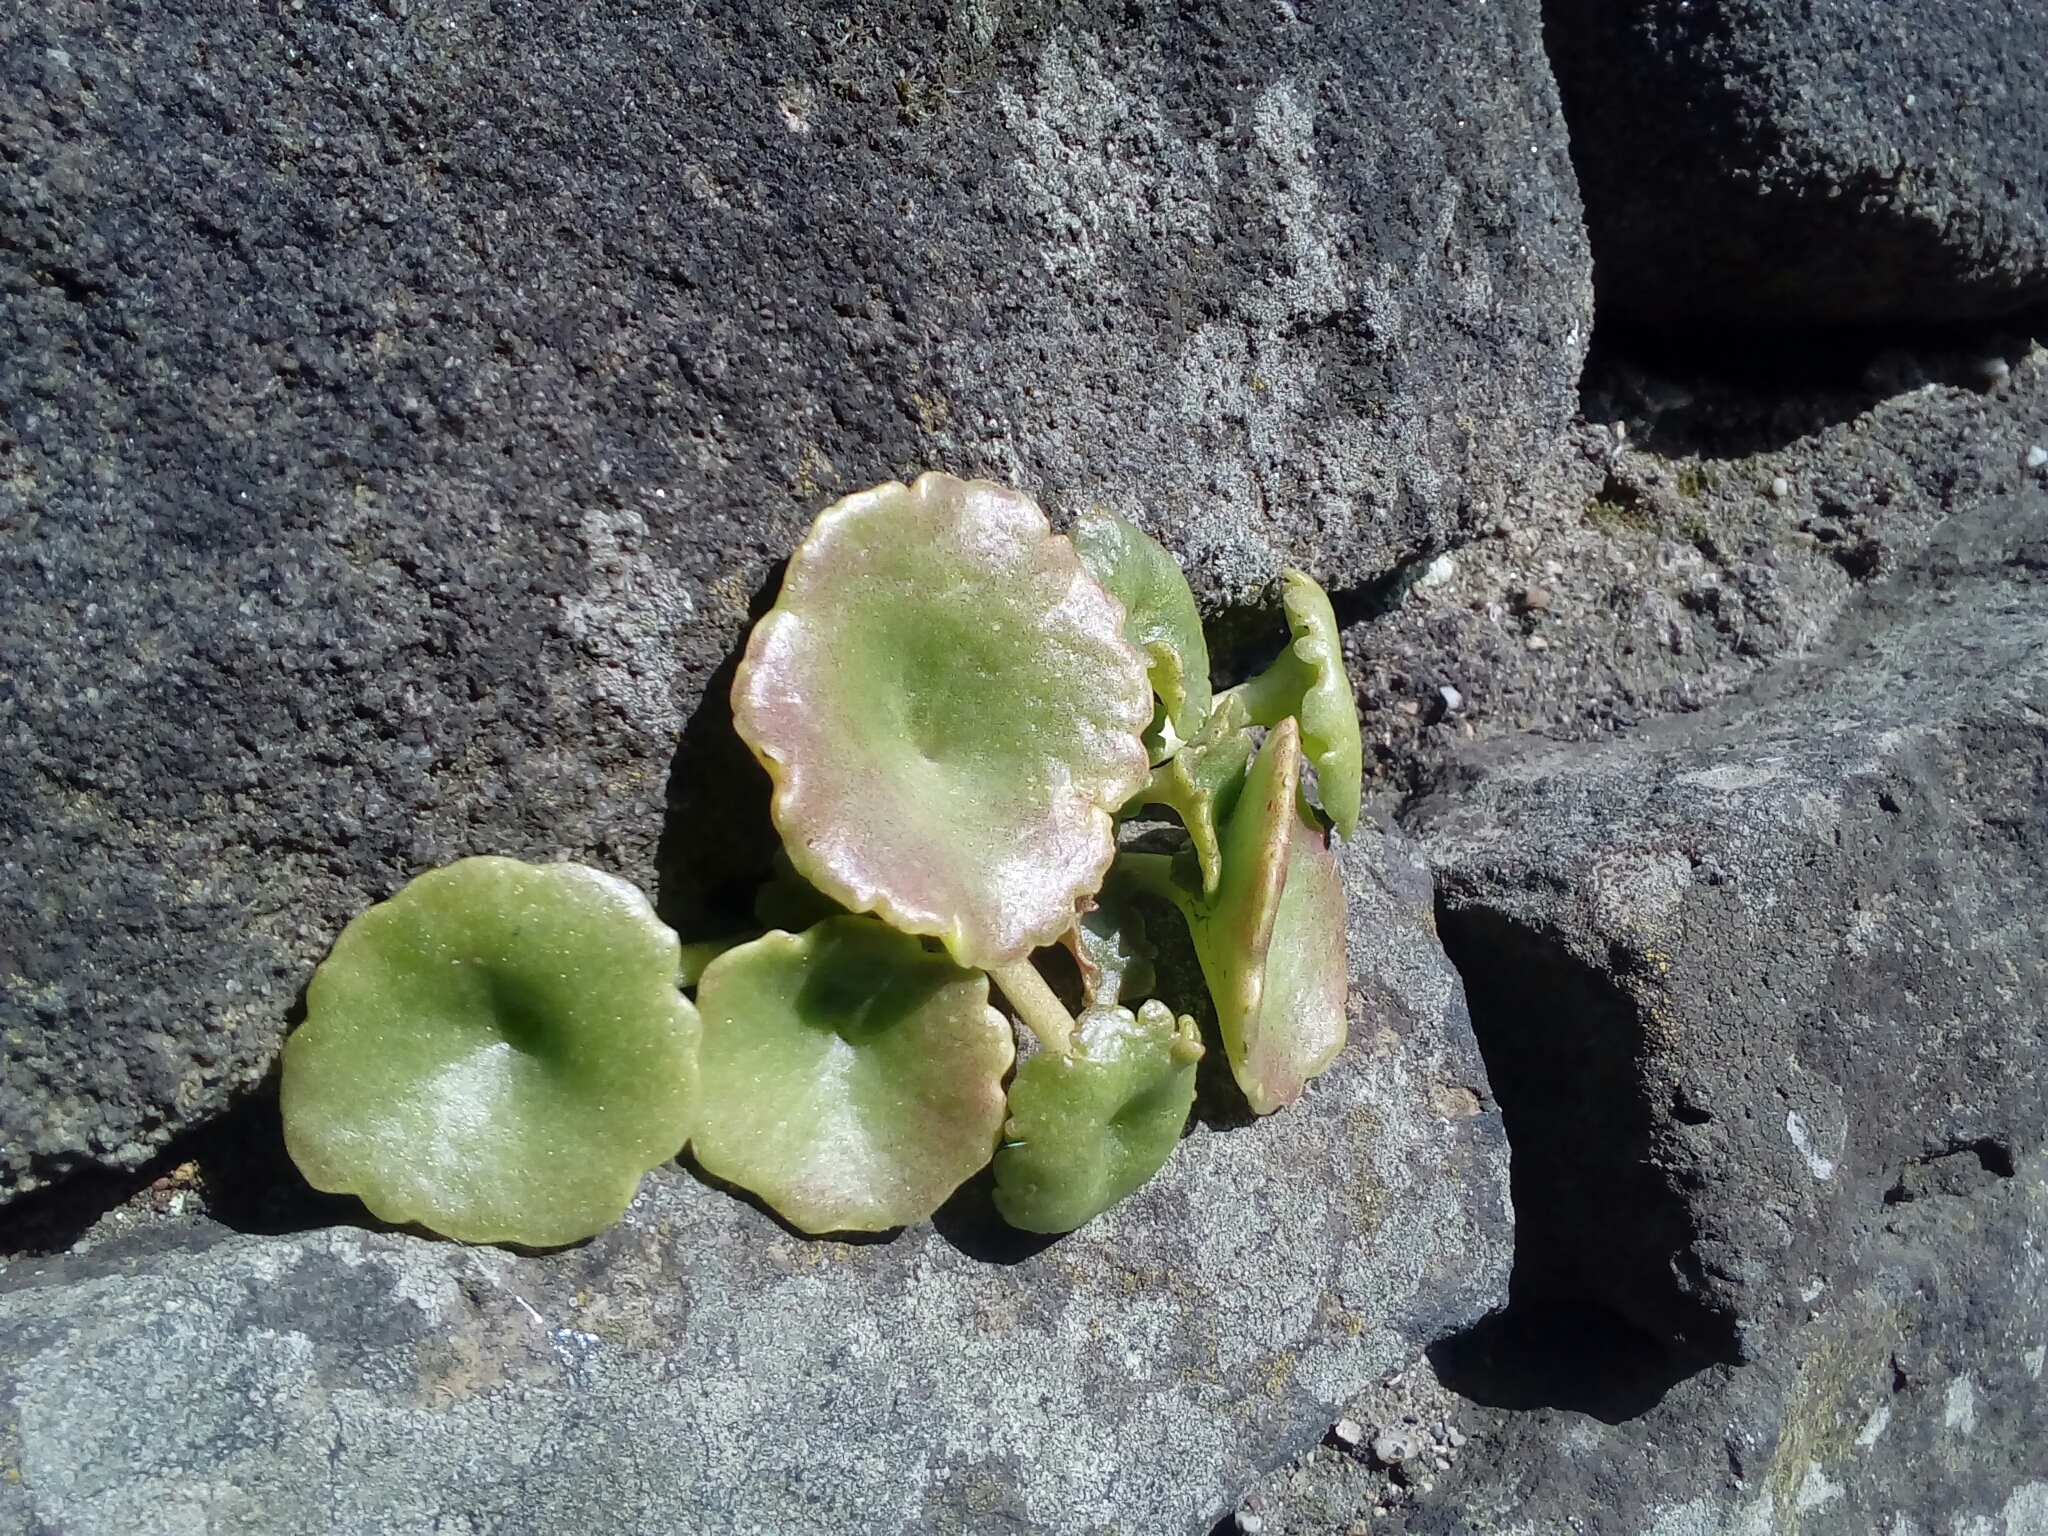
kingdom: Plantae
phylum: Tracheophyta
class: Magnoliopsida
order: Saxifragales
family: Crassulaceae
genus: Umbilicus
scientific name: Umbilicus rupestris
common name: Navelwort
